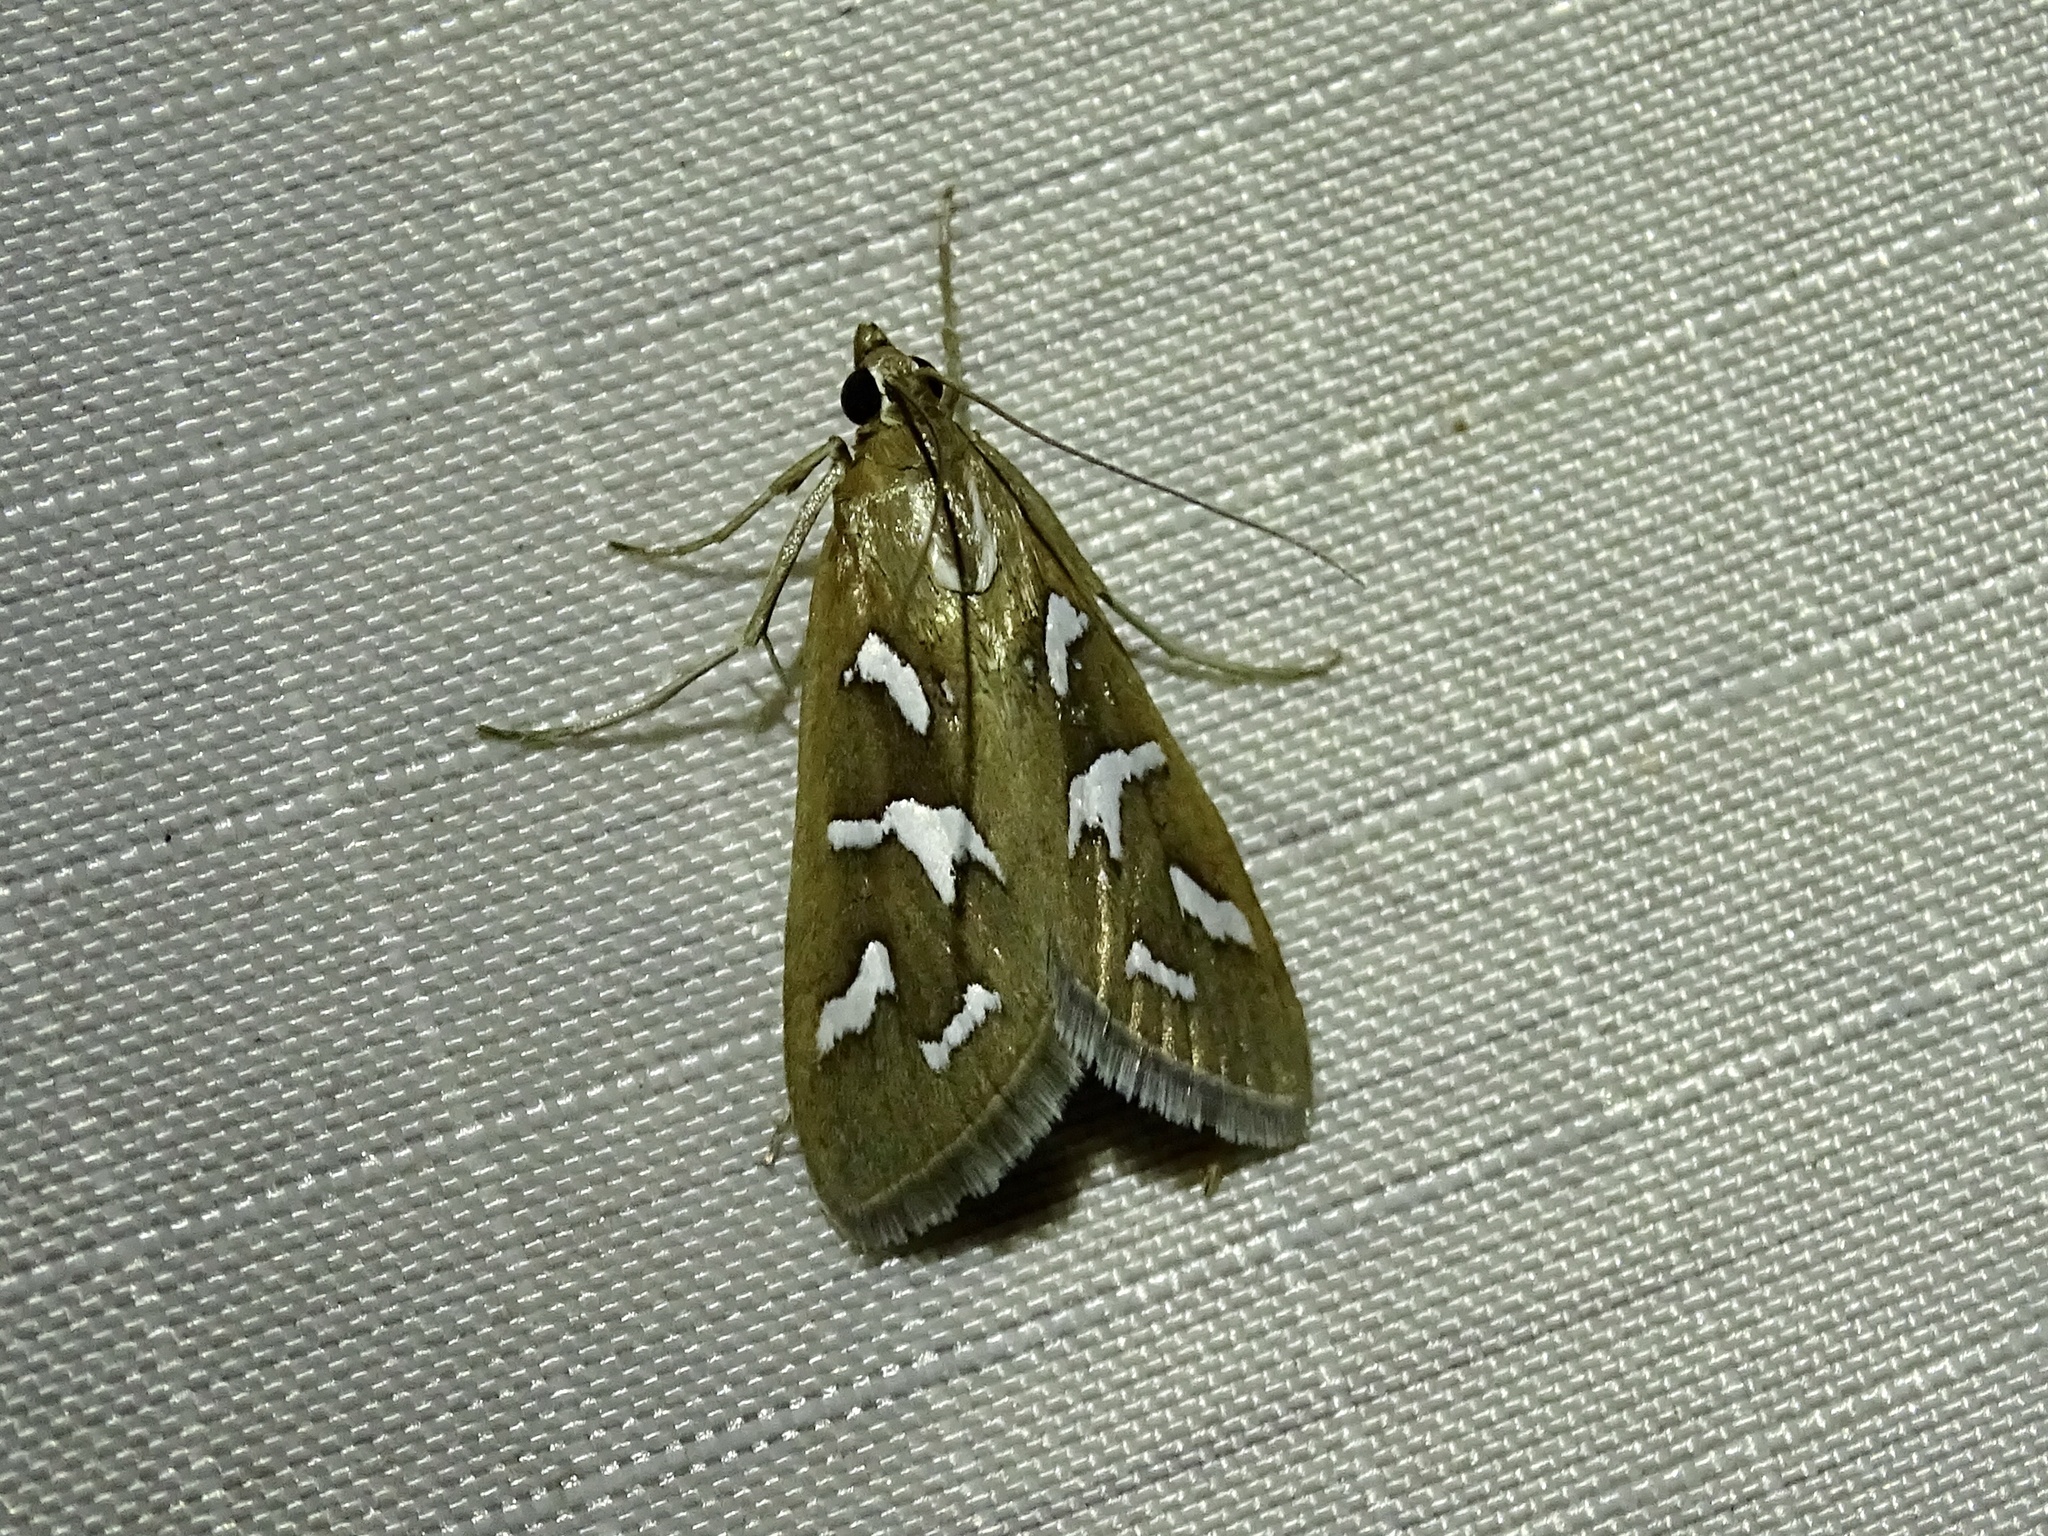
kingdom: Animalia
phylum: Arthropoda
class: Insecta
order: Lepidoptera
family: Crambidae
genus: Diastictis
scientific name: Diastictis fracturalis
